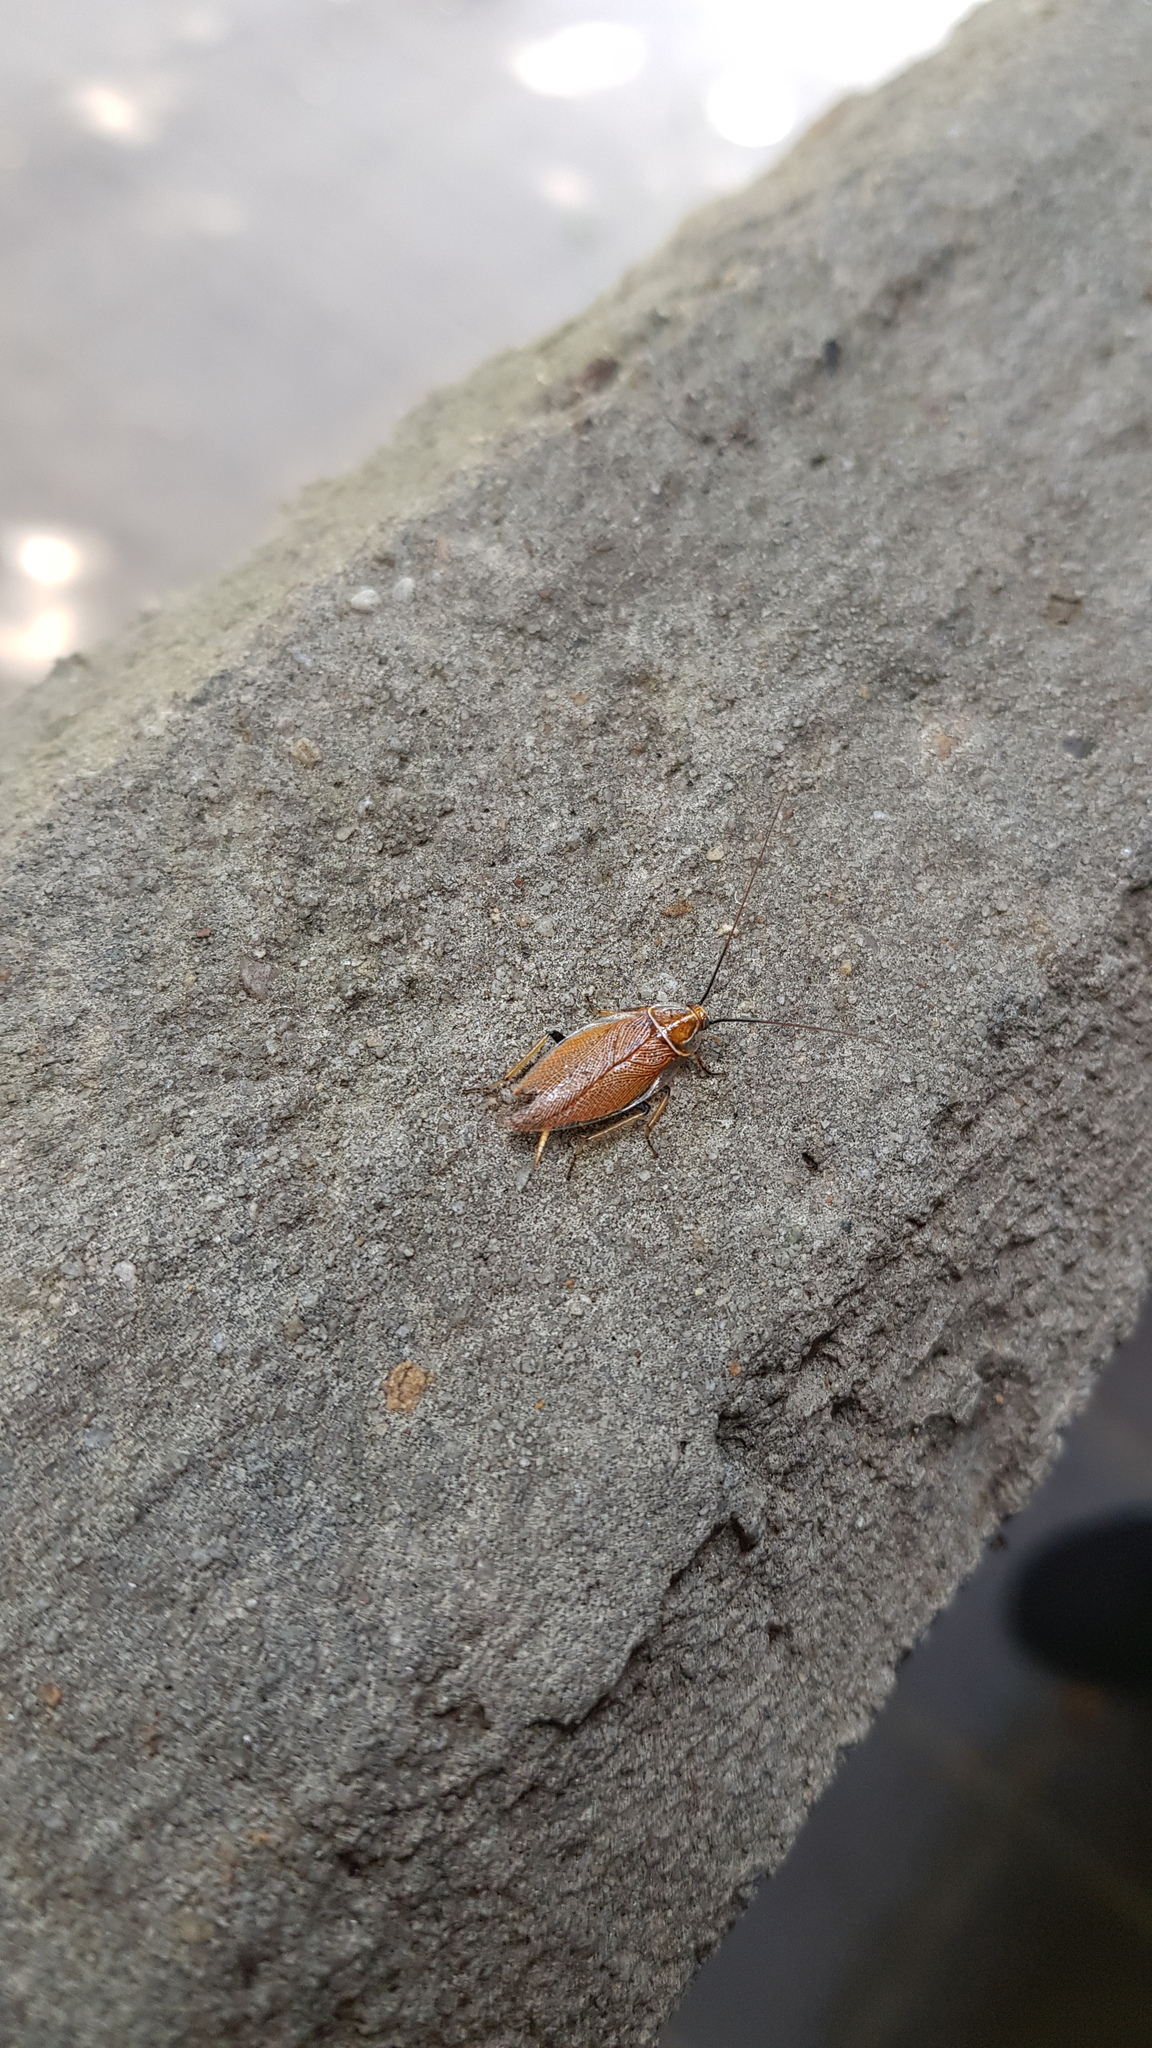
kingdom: Animalia
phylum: Arthropoda
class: Insecta
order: Blattodea
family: Ectobiidae
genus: Balta
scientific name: Balta bicolor
